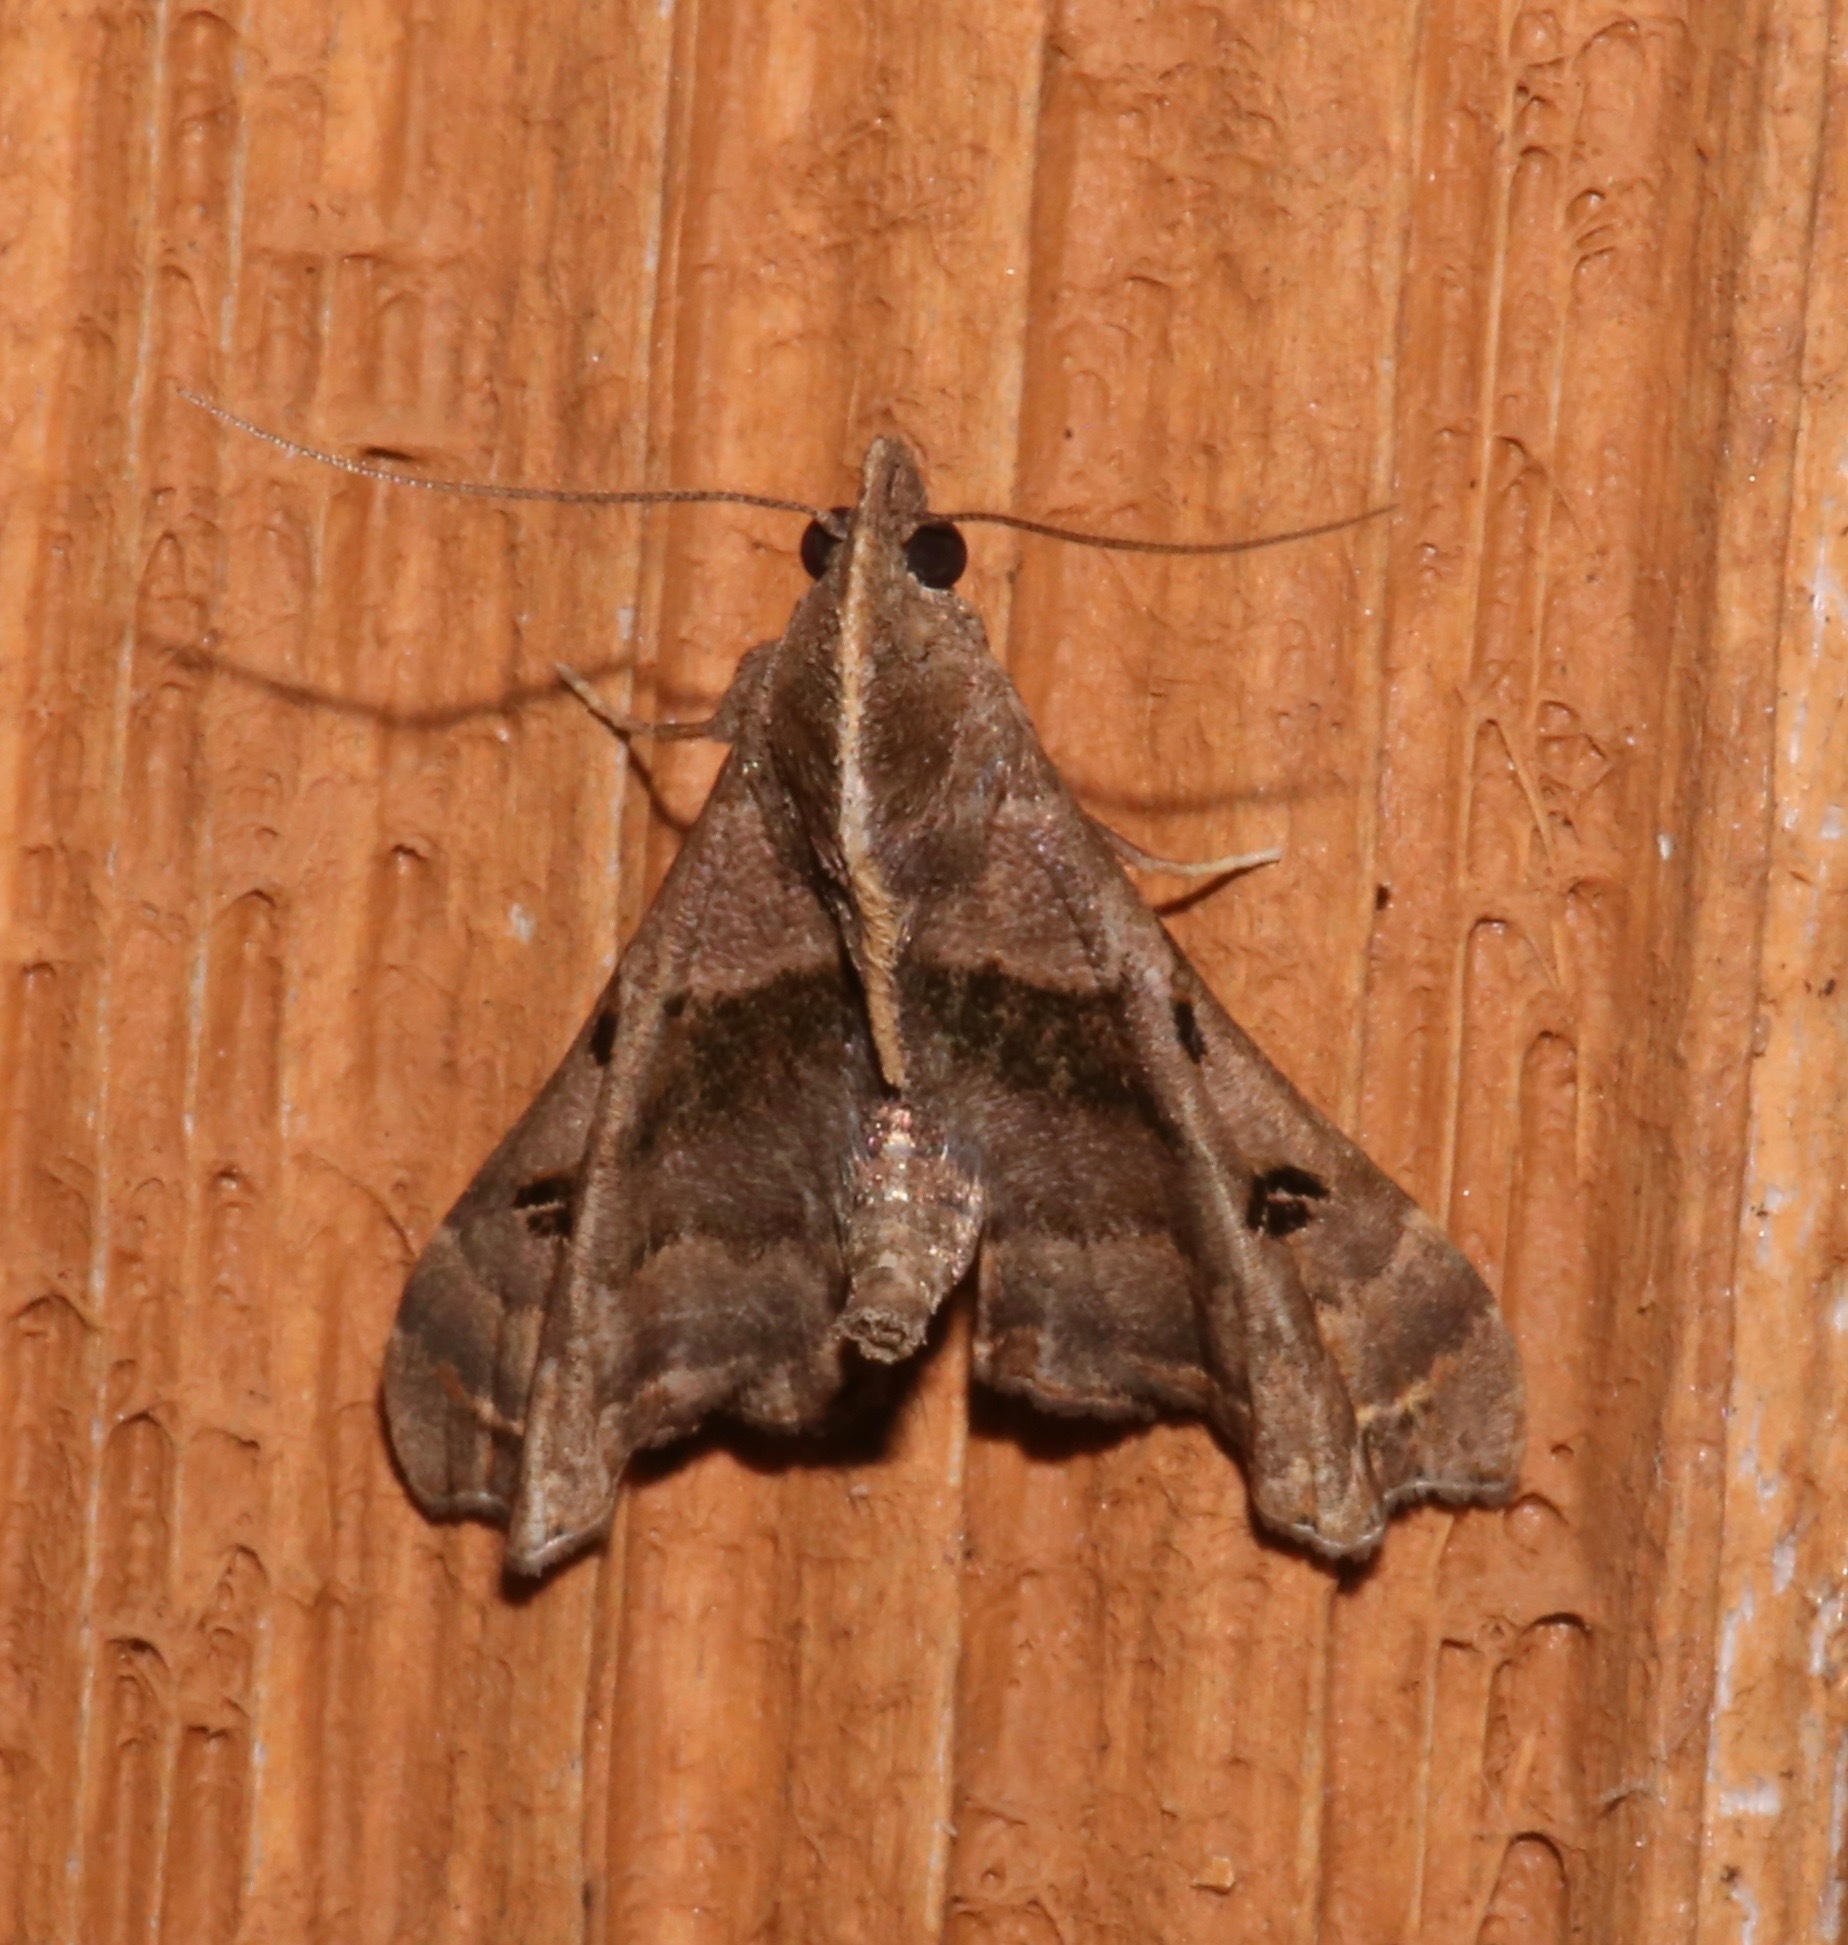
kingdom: Animalia
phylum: Arthropoda
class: Insecta
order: Lepidoptera
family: Erebidae
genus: Palthis
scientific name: Palthis asopialis
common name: Faint-spotted palthis moth
